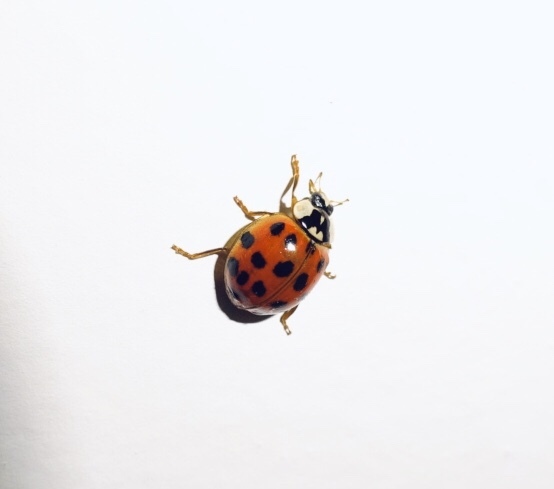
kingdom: Animalia
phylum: Arthropoda
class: Insecta
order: Coleoptera
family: Coccinellidae
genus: Harmonia
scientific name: Harmonia axyridis
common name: Harlequin ladybird
